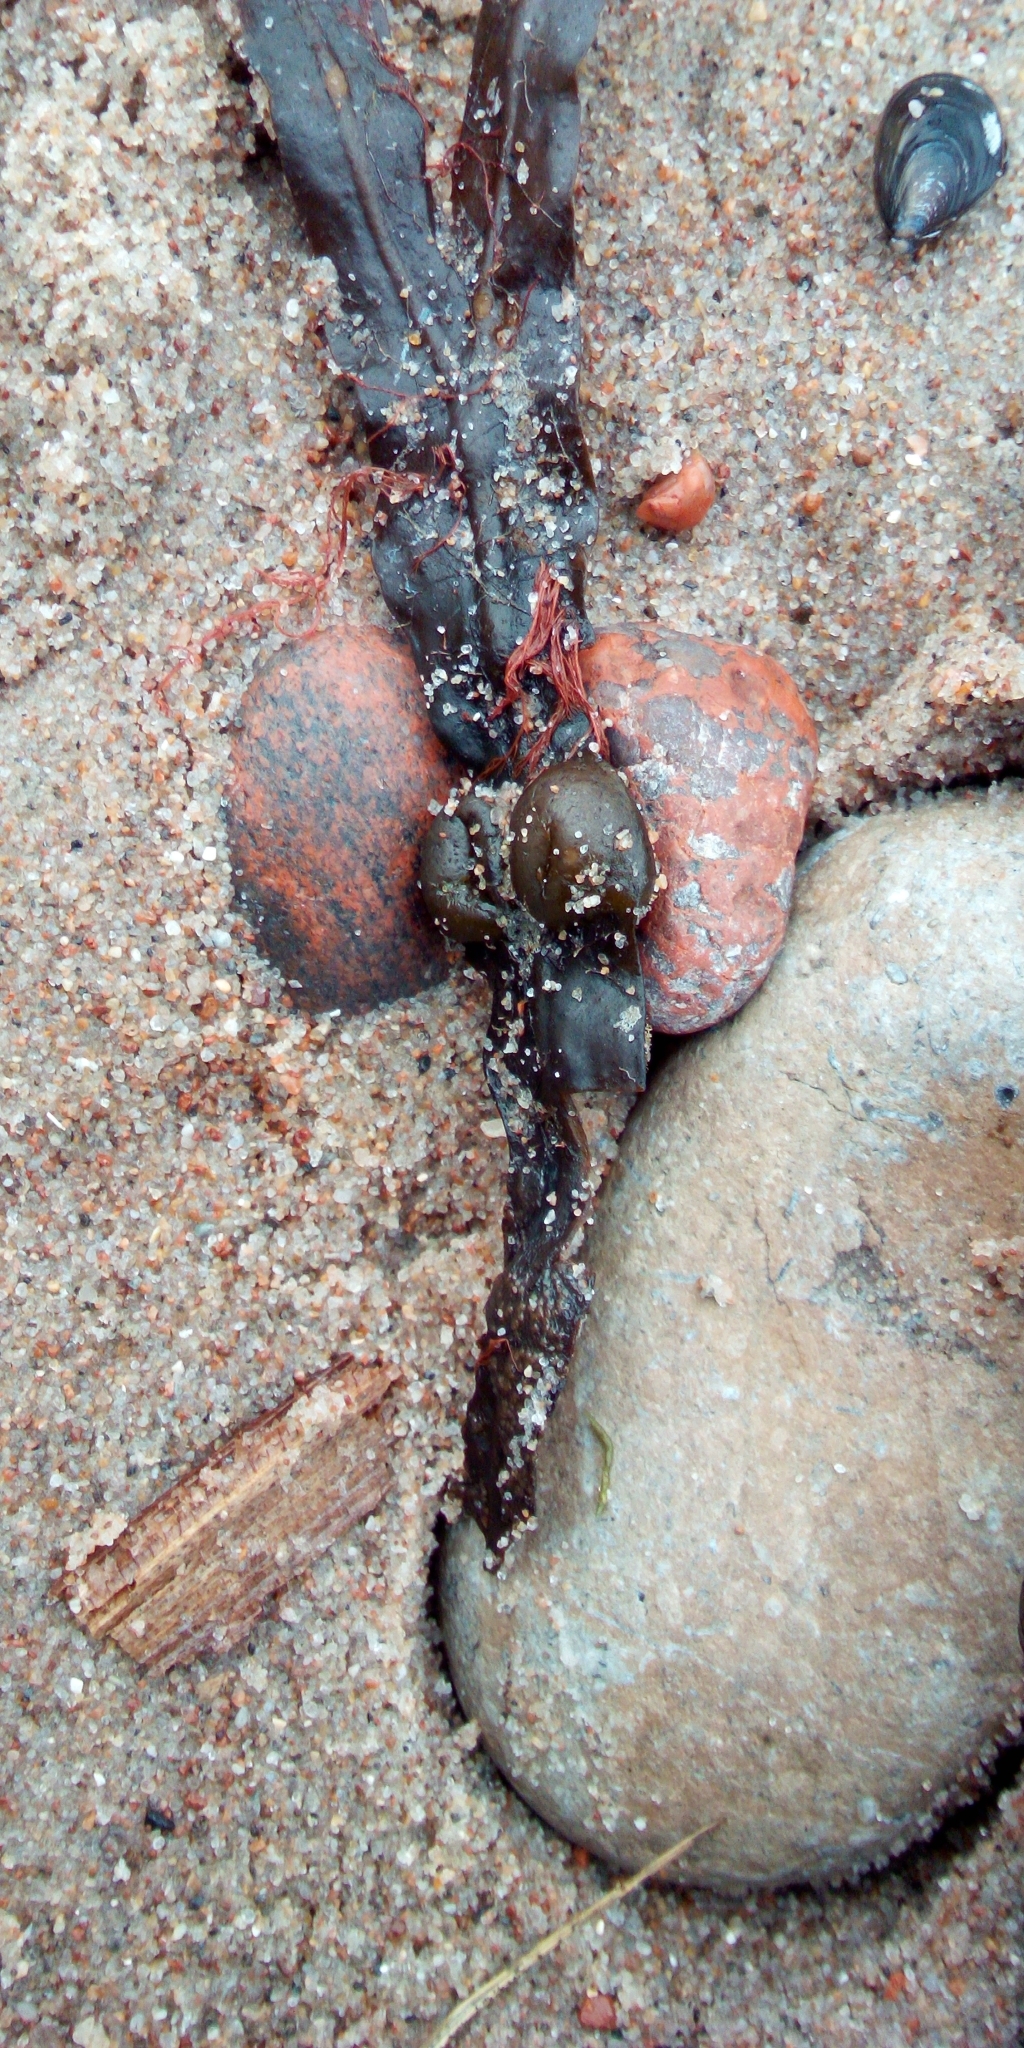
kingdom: Chromista
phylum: Ochrophyta
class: Phaeophyceae
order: Fucales
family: Fucaceae
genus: Fucus
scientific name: Fucus vesiculosus
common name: Bladder wrack
